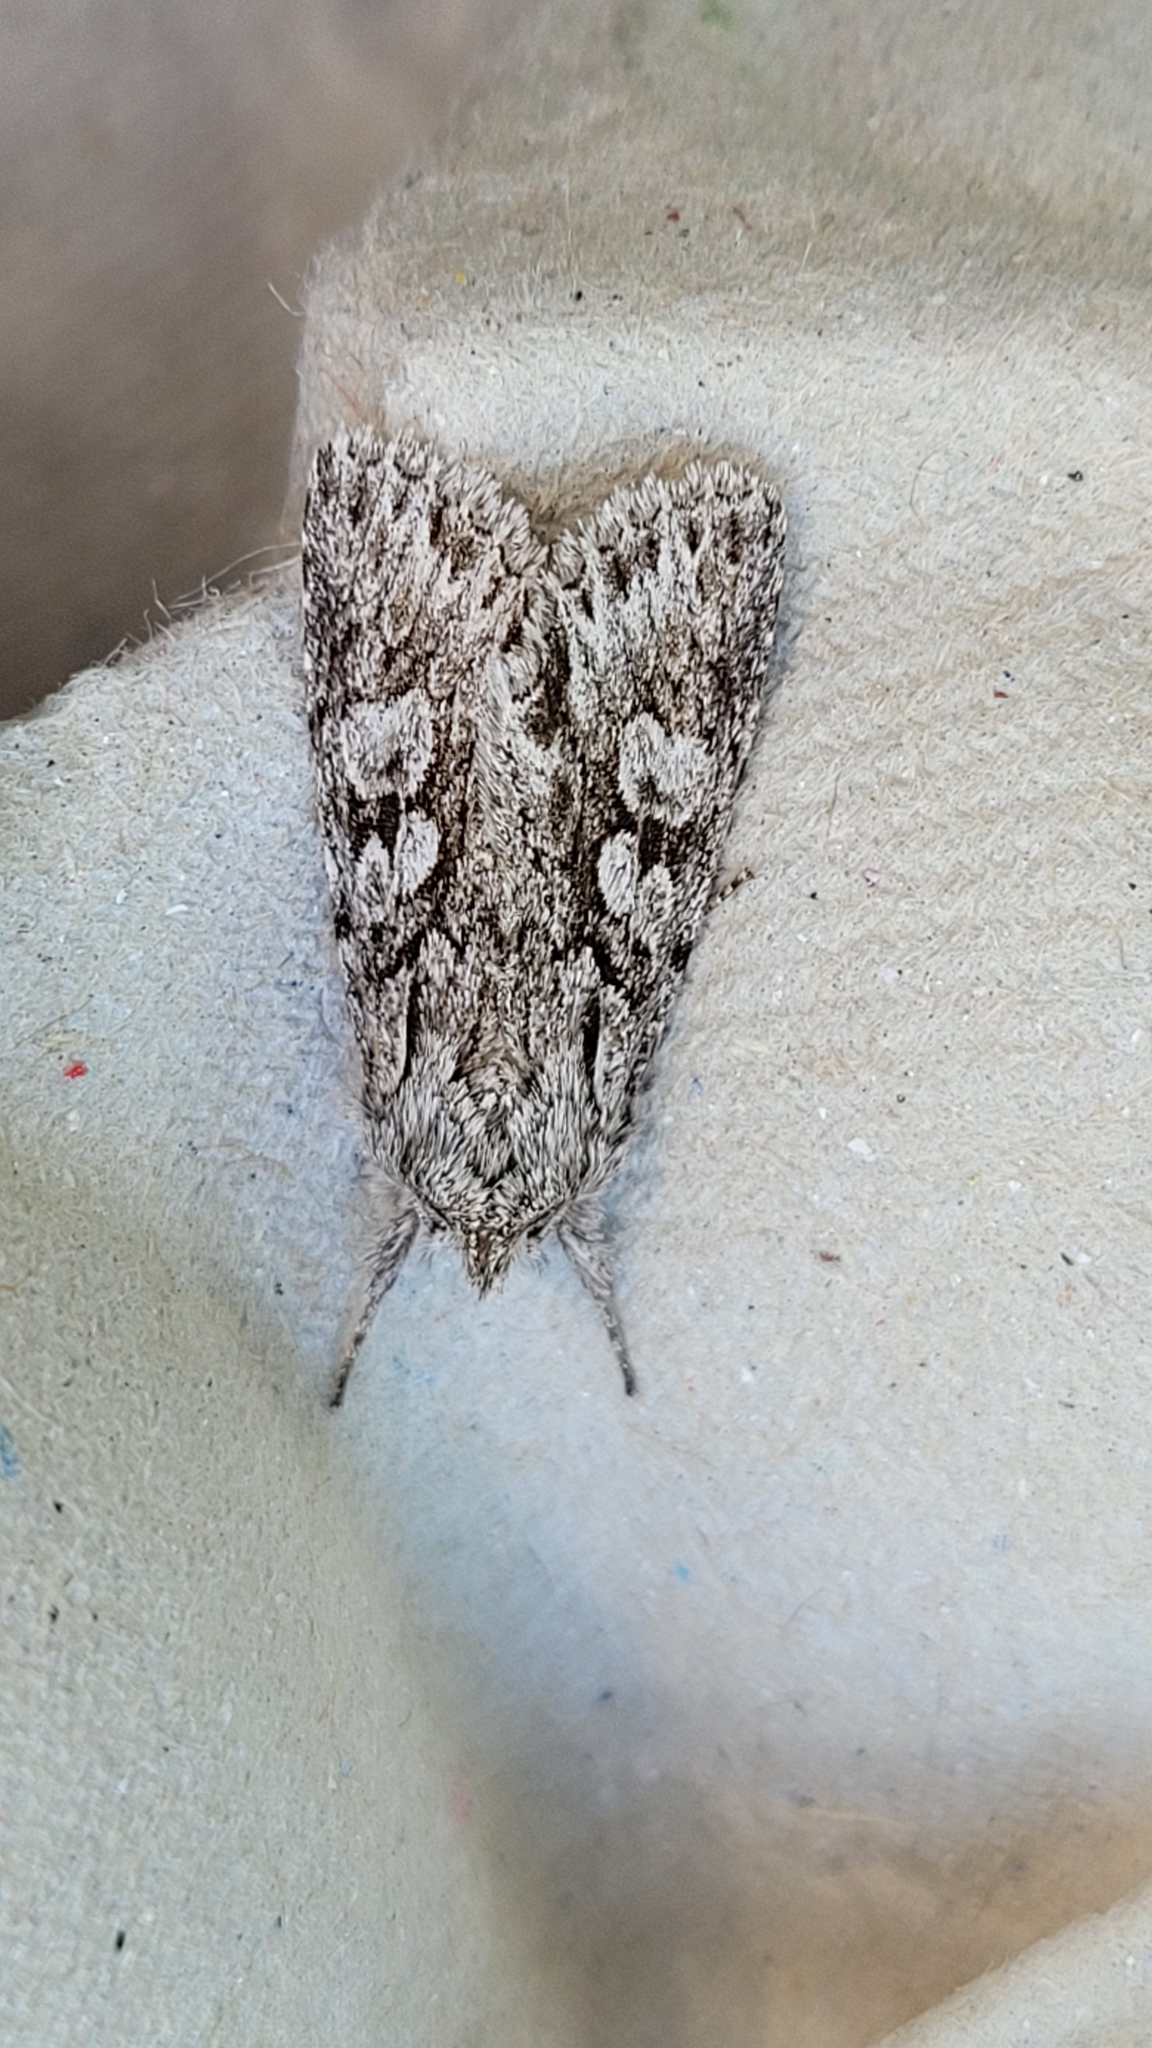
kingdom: Animalia
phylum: Arthropoda
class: Insecta
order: Lepidoptera
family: Noctuidae
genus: Xylocampa
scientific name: Xylocampa areola
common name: Early grey
